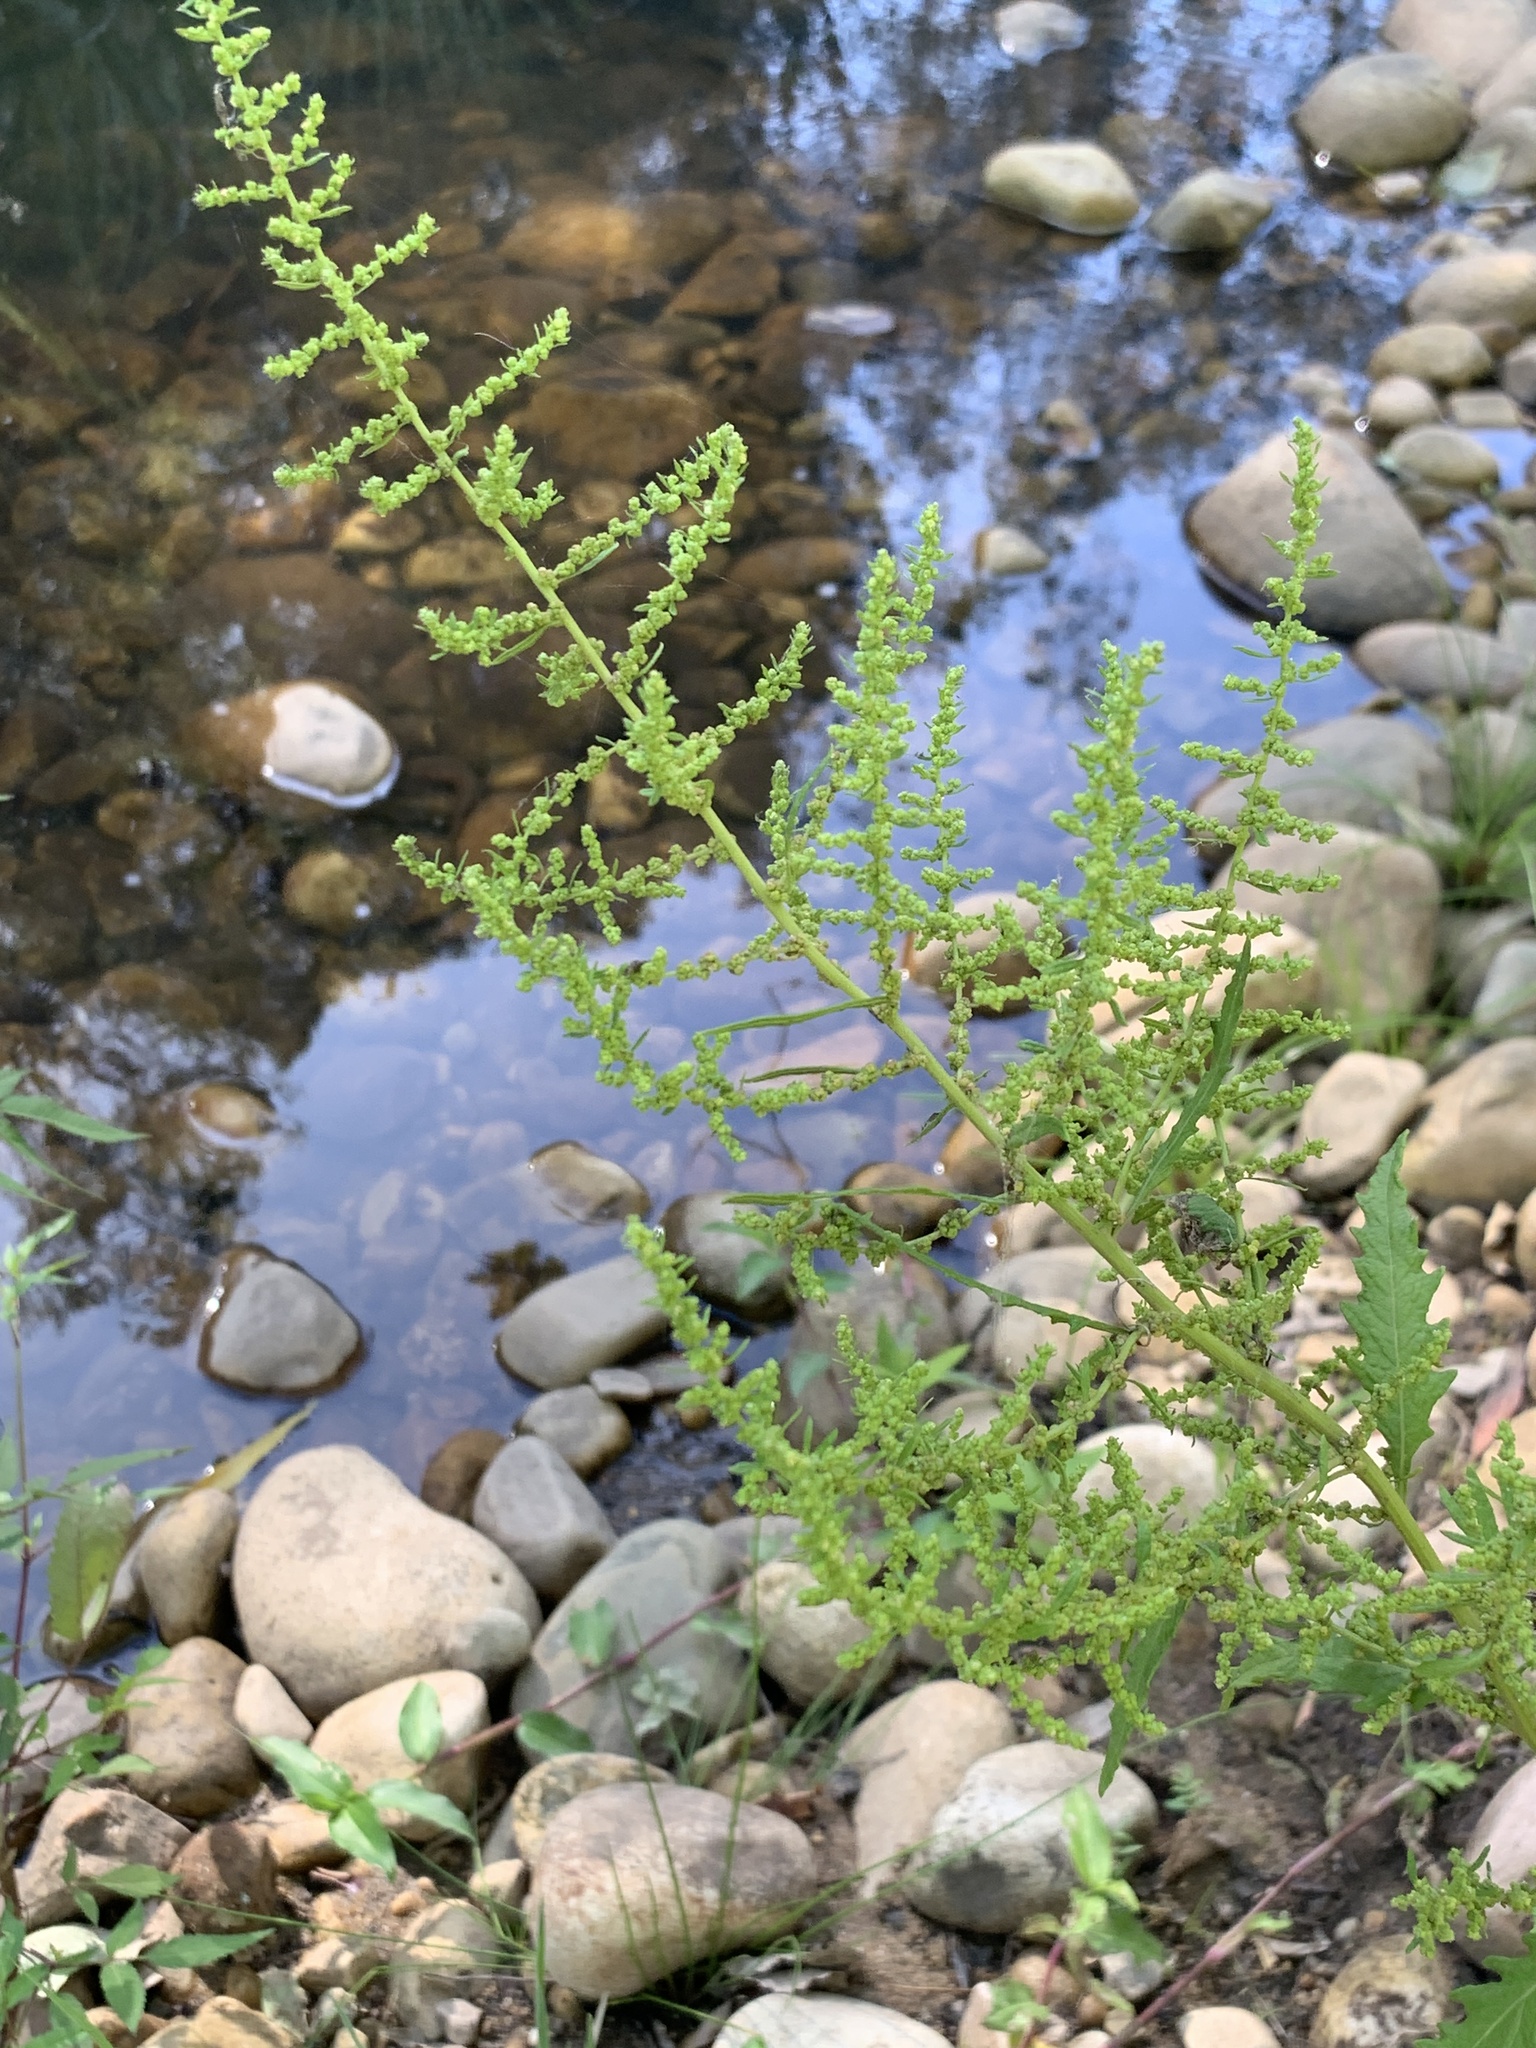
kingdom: Plantae
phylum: Tracheophyta
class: Magnoliopsida
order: Caryophyllales
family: Amaranthaceae
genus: Dysphania
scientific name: Dysphania ambrosioides
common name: Wormseed
